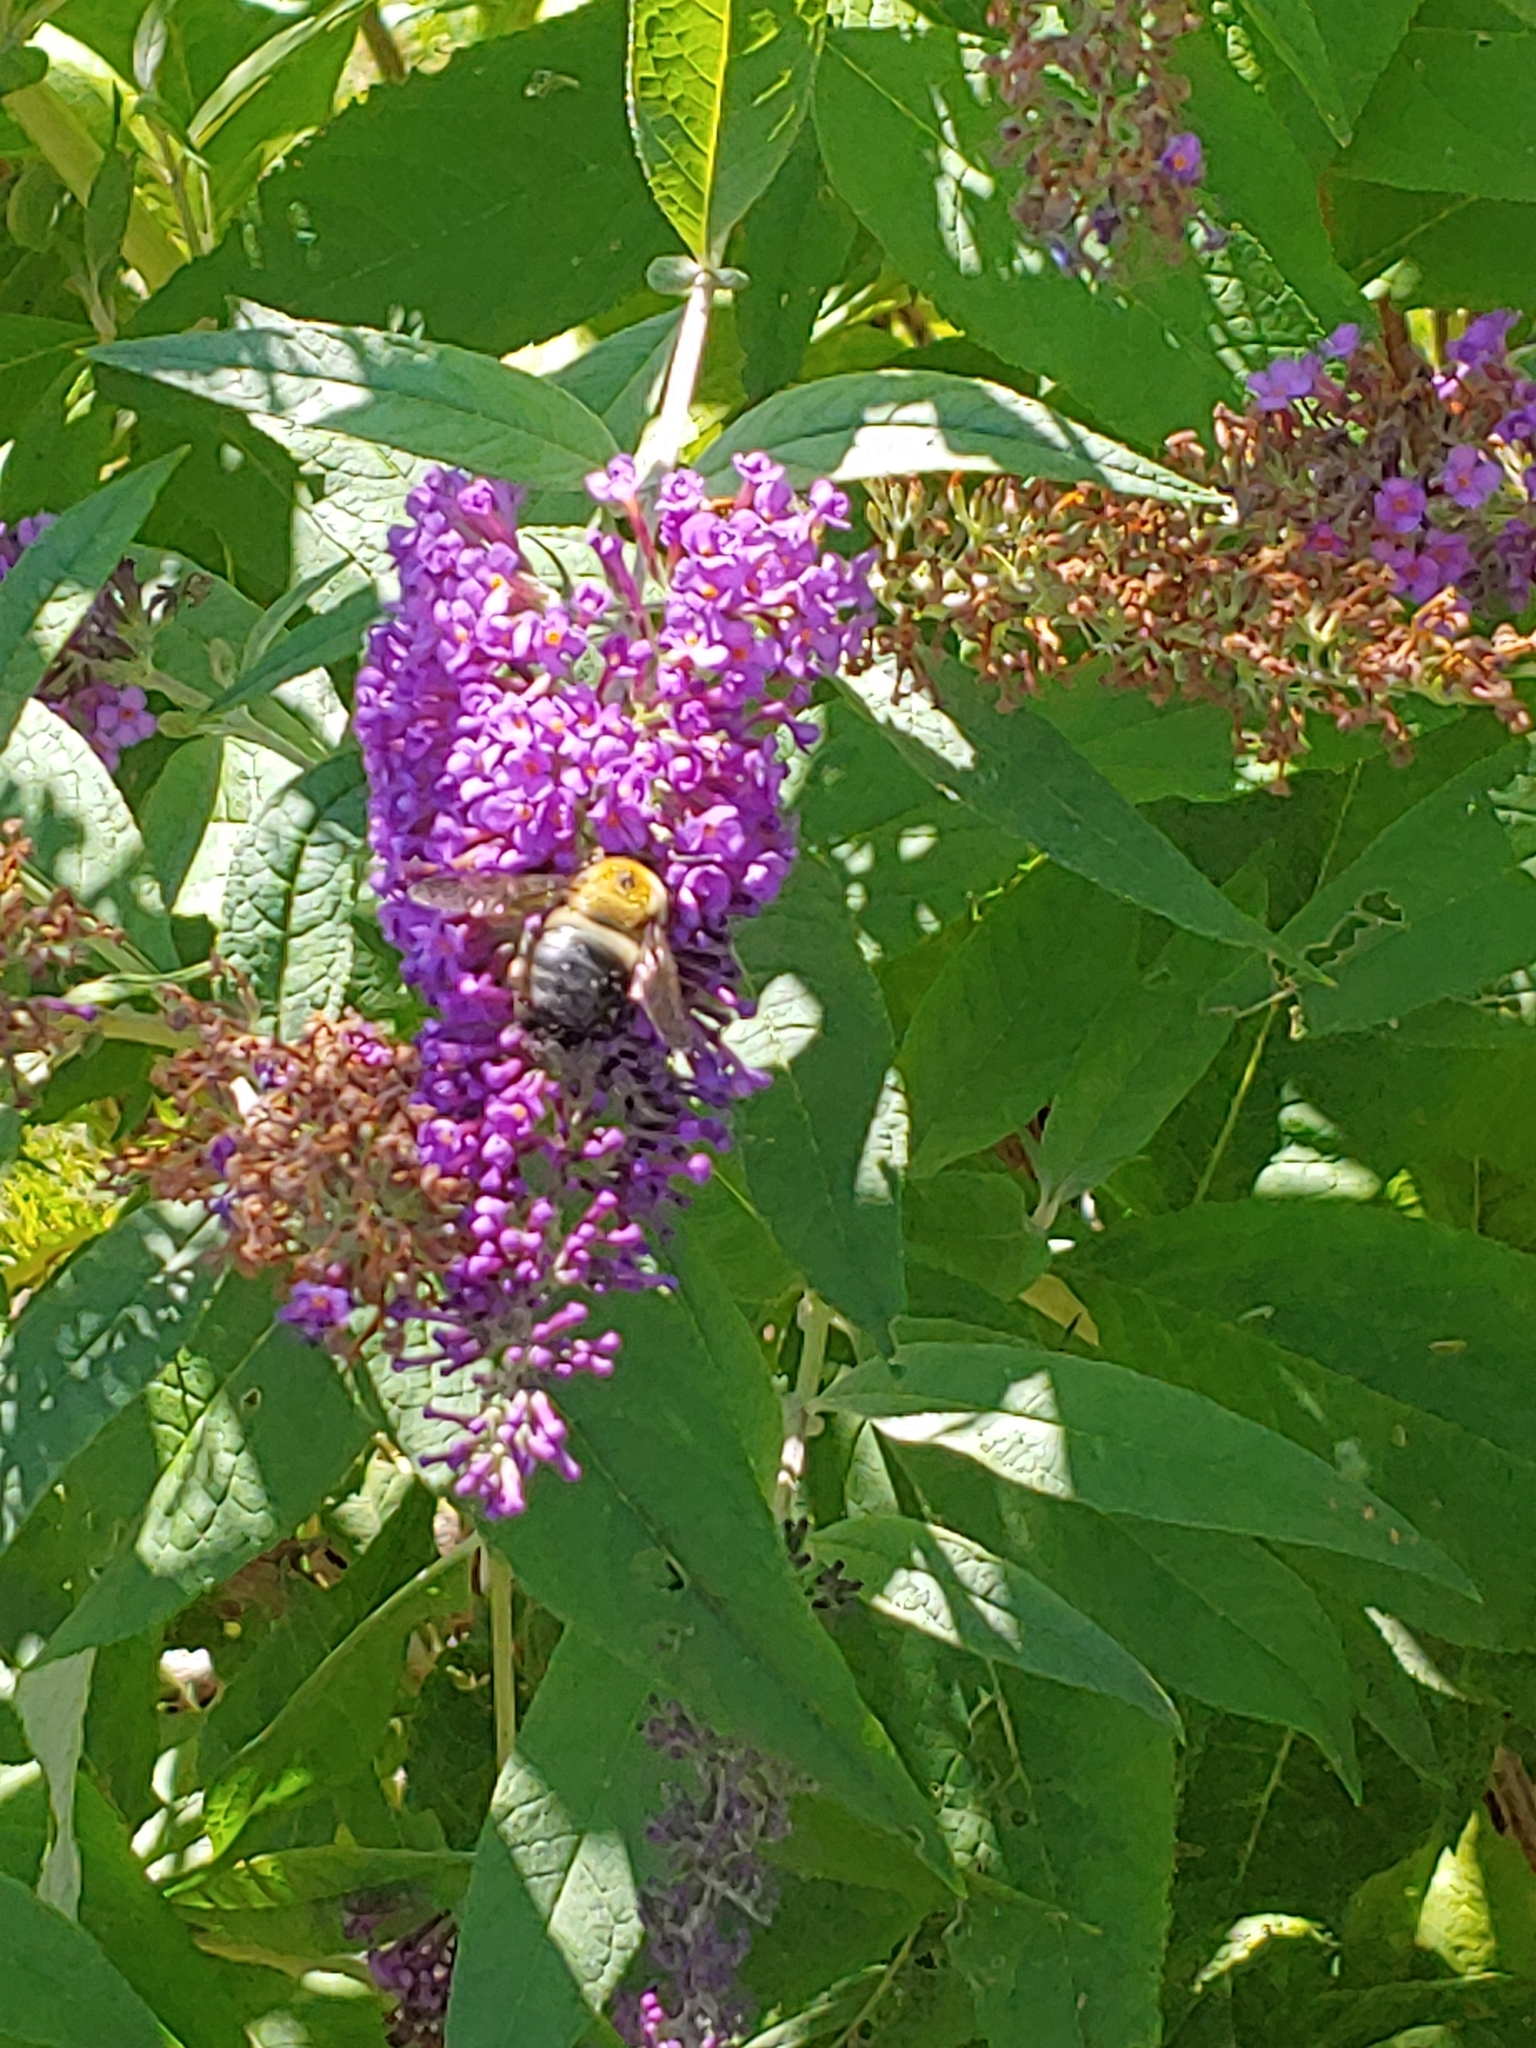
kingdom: Animalia
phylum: Arthropoda
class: Insecta
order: Hymenoptera
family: Apidae
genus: Xylocopa
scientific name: Xylocopa virginica
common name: Carpenter bee
